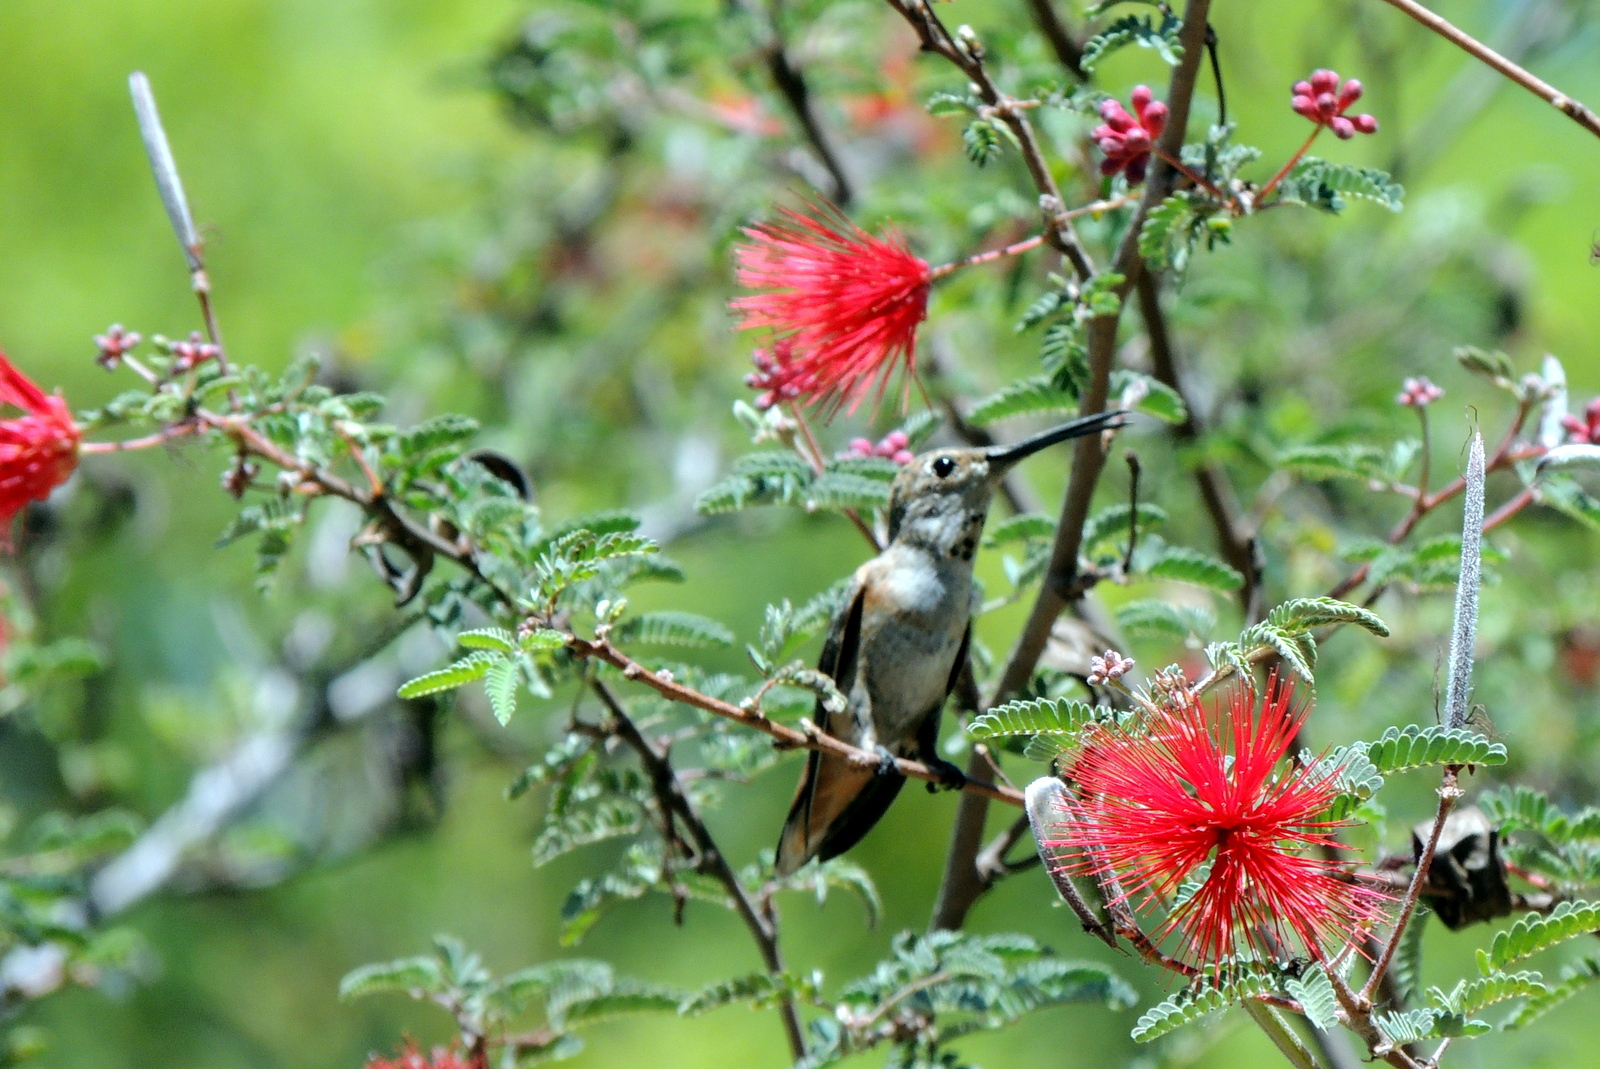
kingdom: Animalia
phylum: Chordata
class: Aves
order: Apodiformes
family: Trochilidae
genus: Selasphorus
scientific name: Selasphorus
